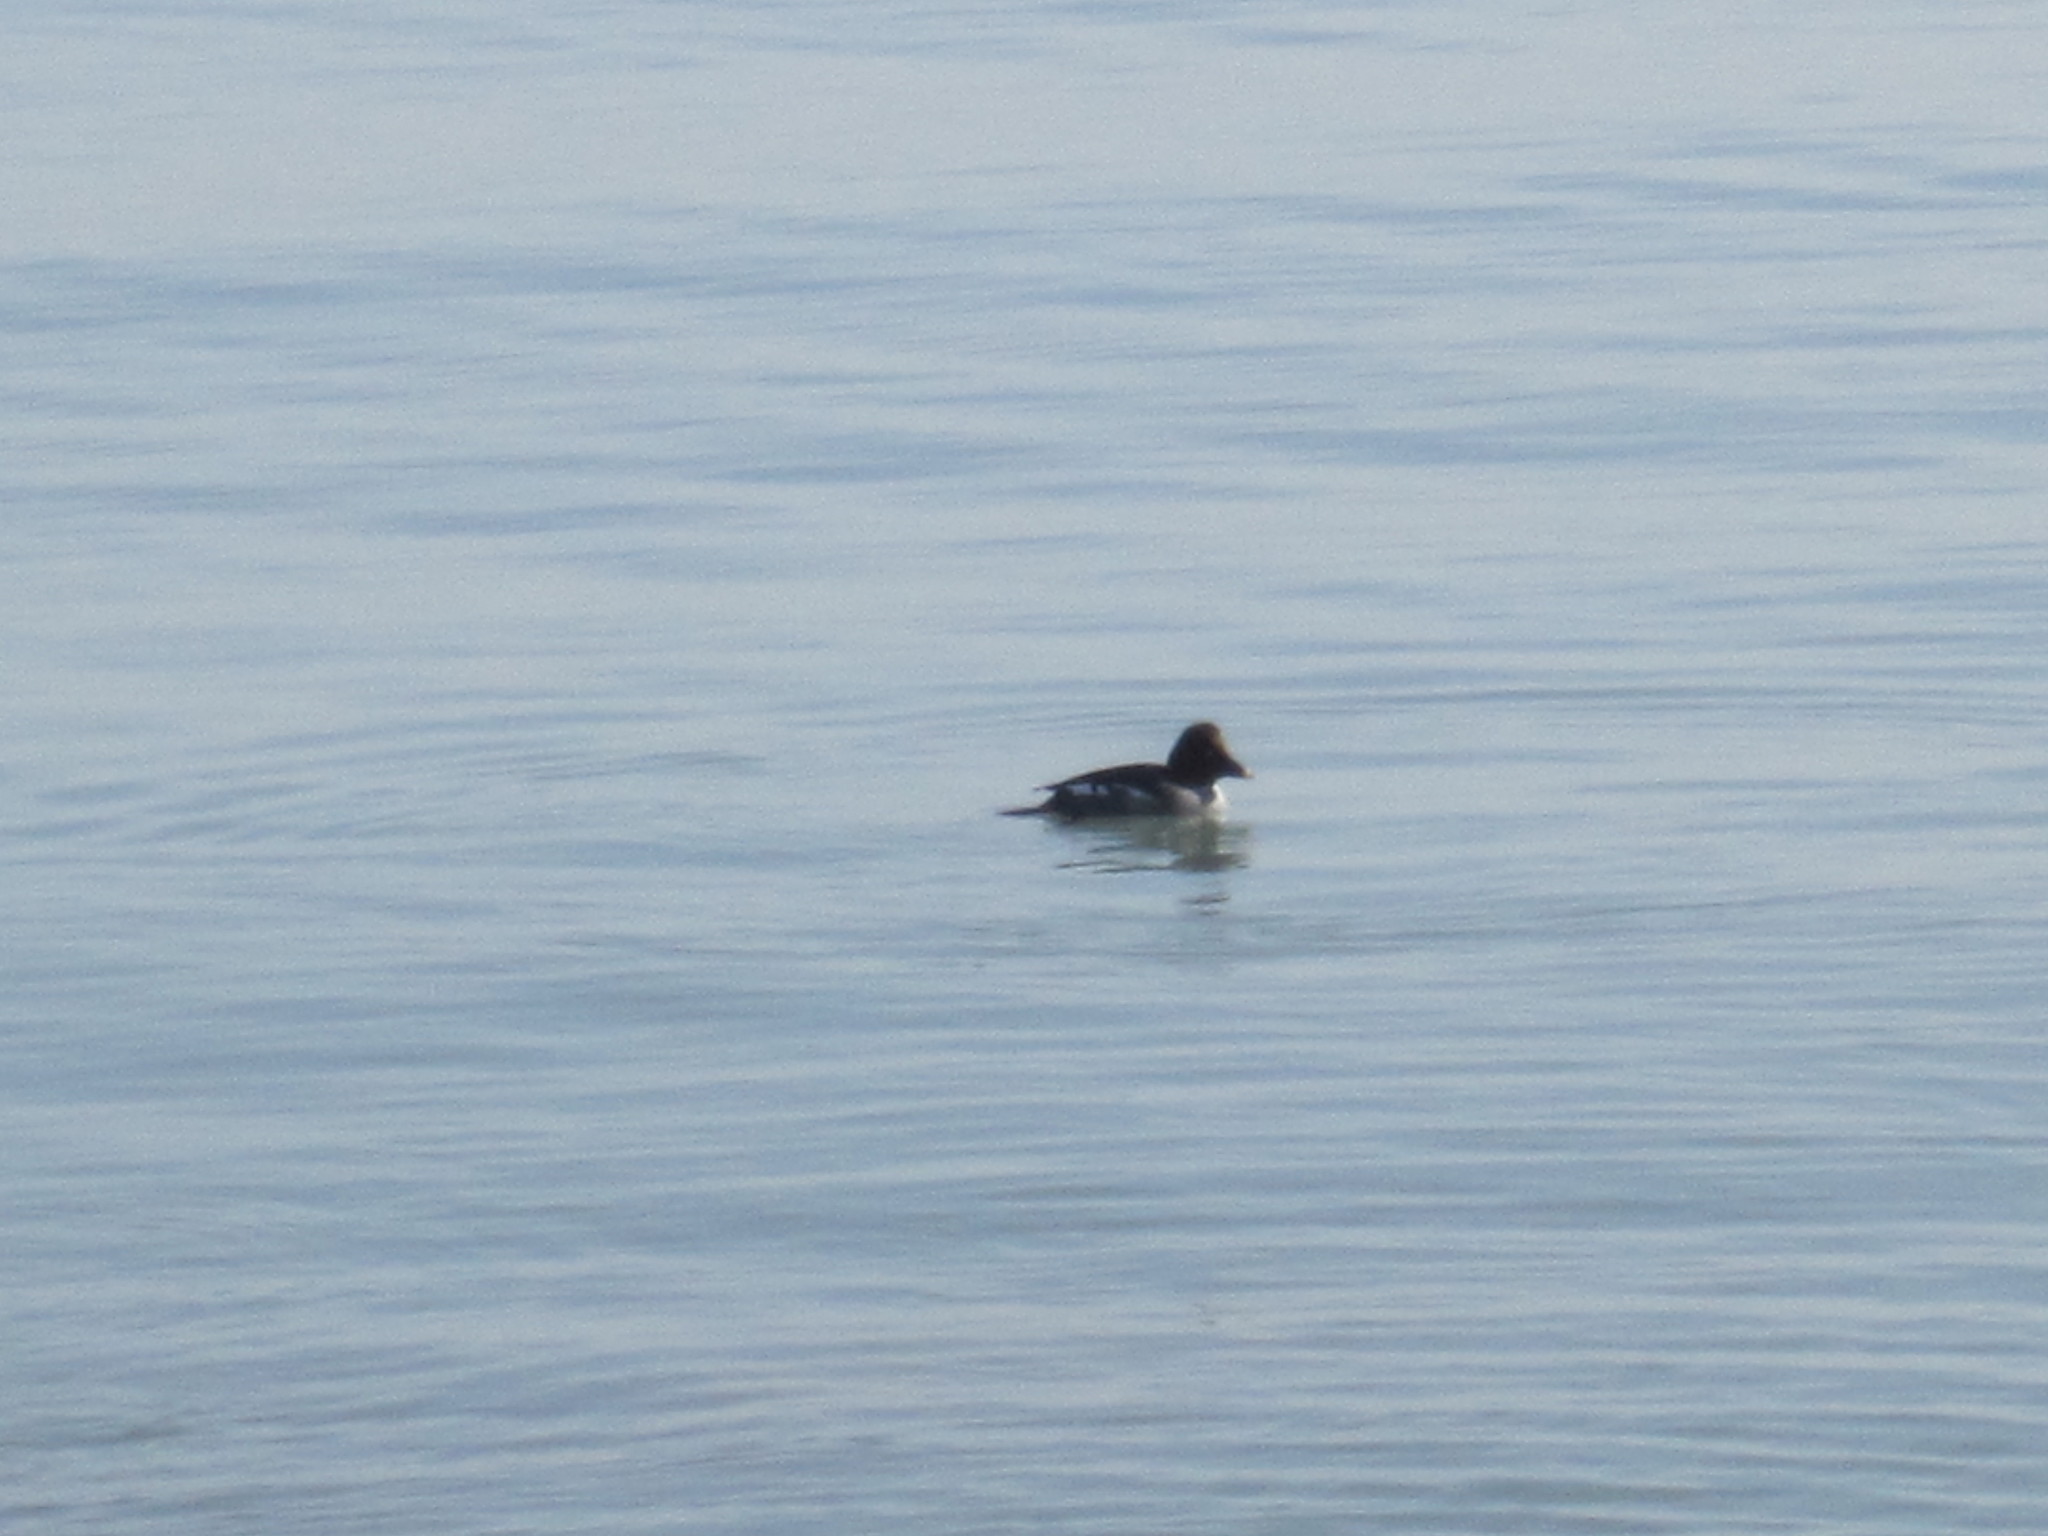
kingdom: Animalia
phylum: Chordata
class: Aves
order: Anseriformes
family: Anatidae
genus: Bucephala
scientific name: Bucephala clangula
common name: Common goldeneye
